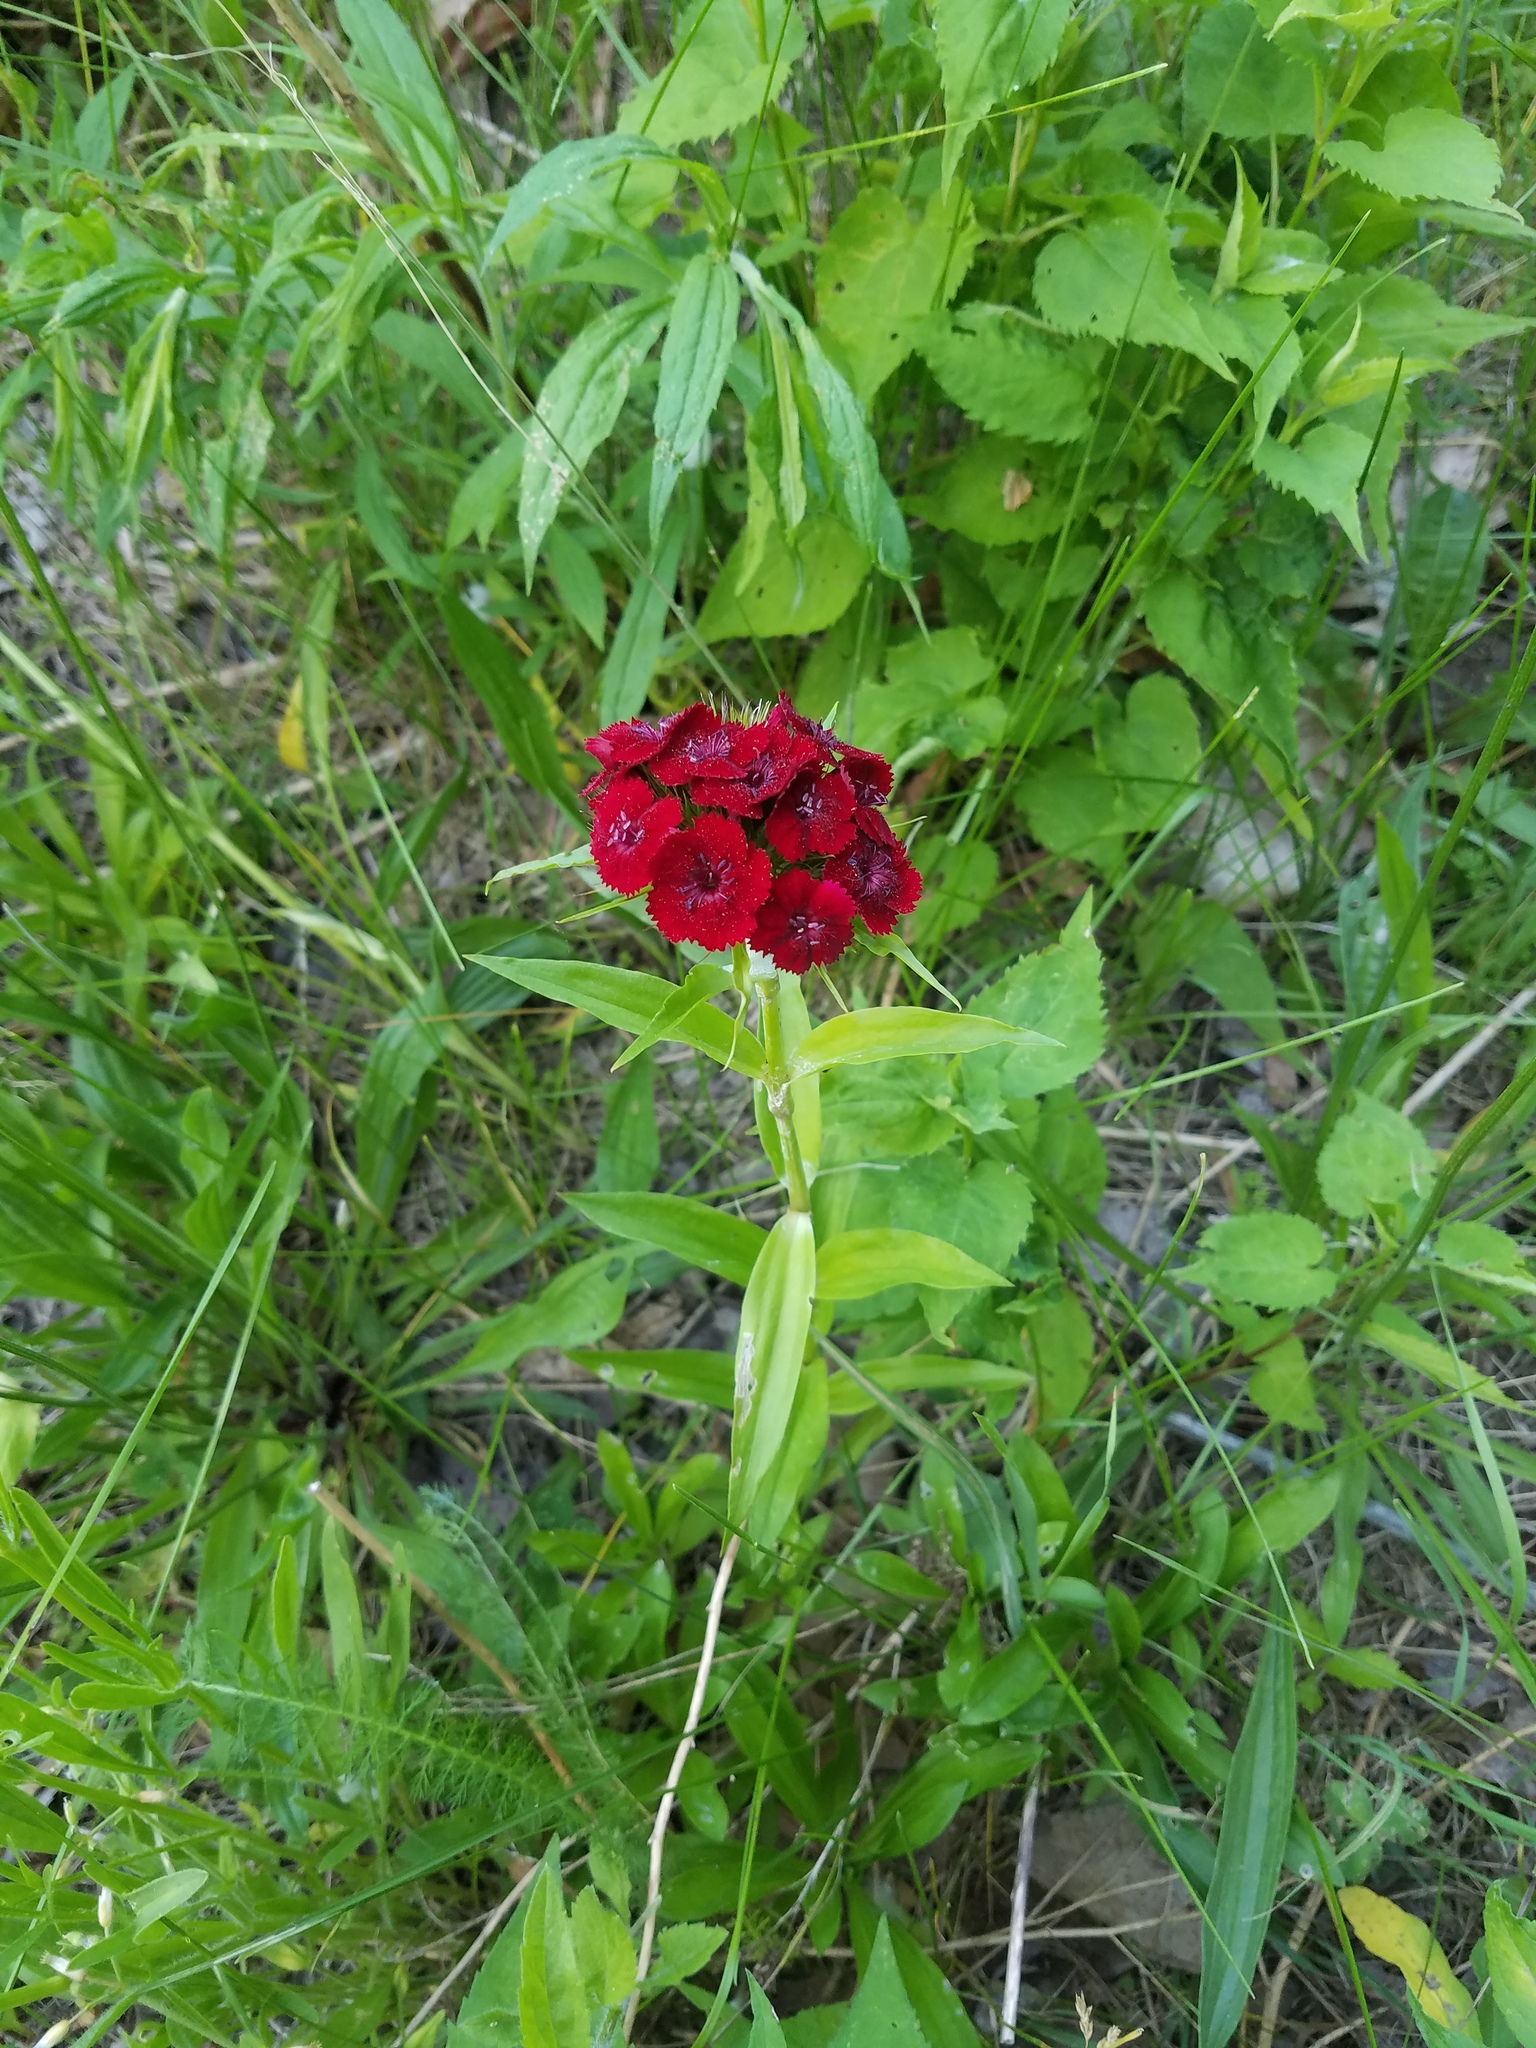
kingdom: Plantae
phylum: Tracheophyta
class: Magnoliopsida
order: Caryophyllales
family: Caryophyllaceae
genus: Dianthus
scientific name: Dianthus barbatus
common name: Sweet-william
